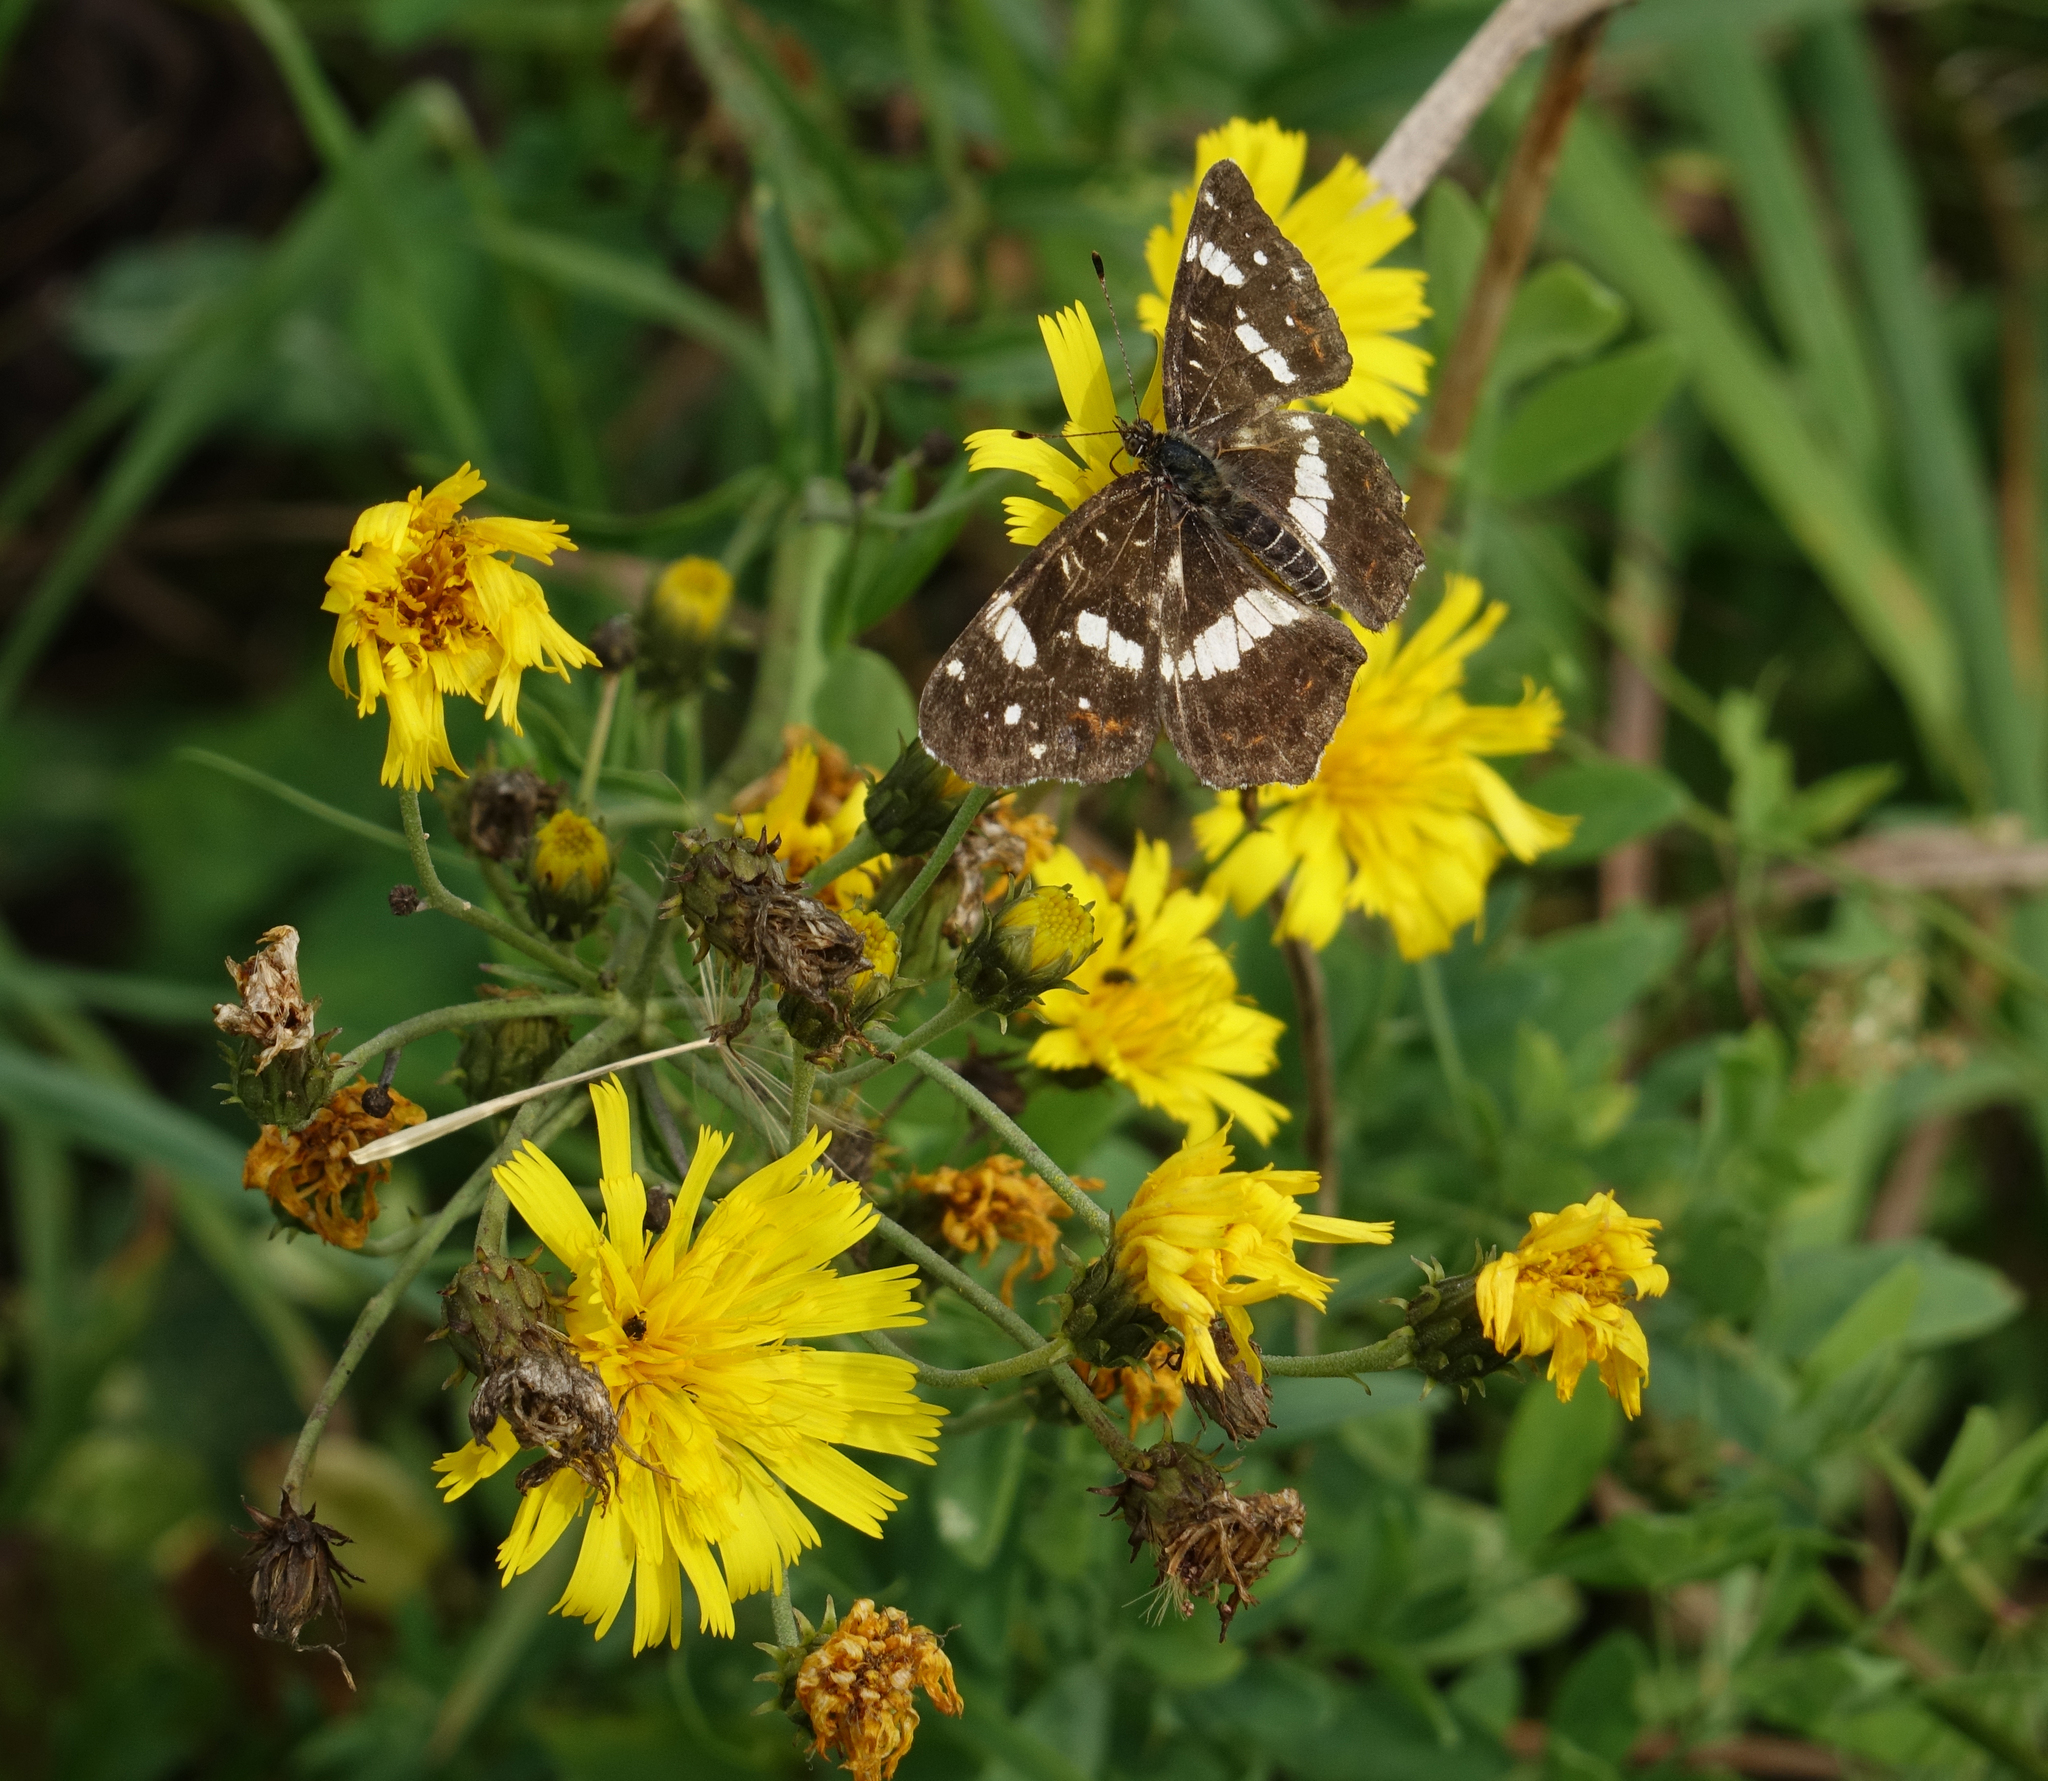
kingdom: Plantae
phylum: Tracheophyta
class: Magnoliopsida
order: Asterales
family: Asteraceae
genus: Hieracium
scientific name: Hieracium umbellatum
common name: Northern hawkweed
